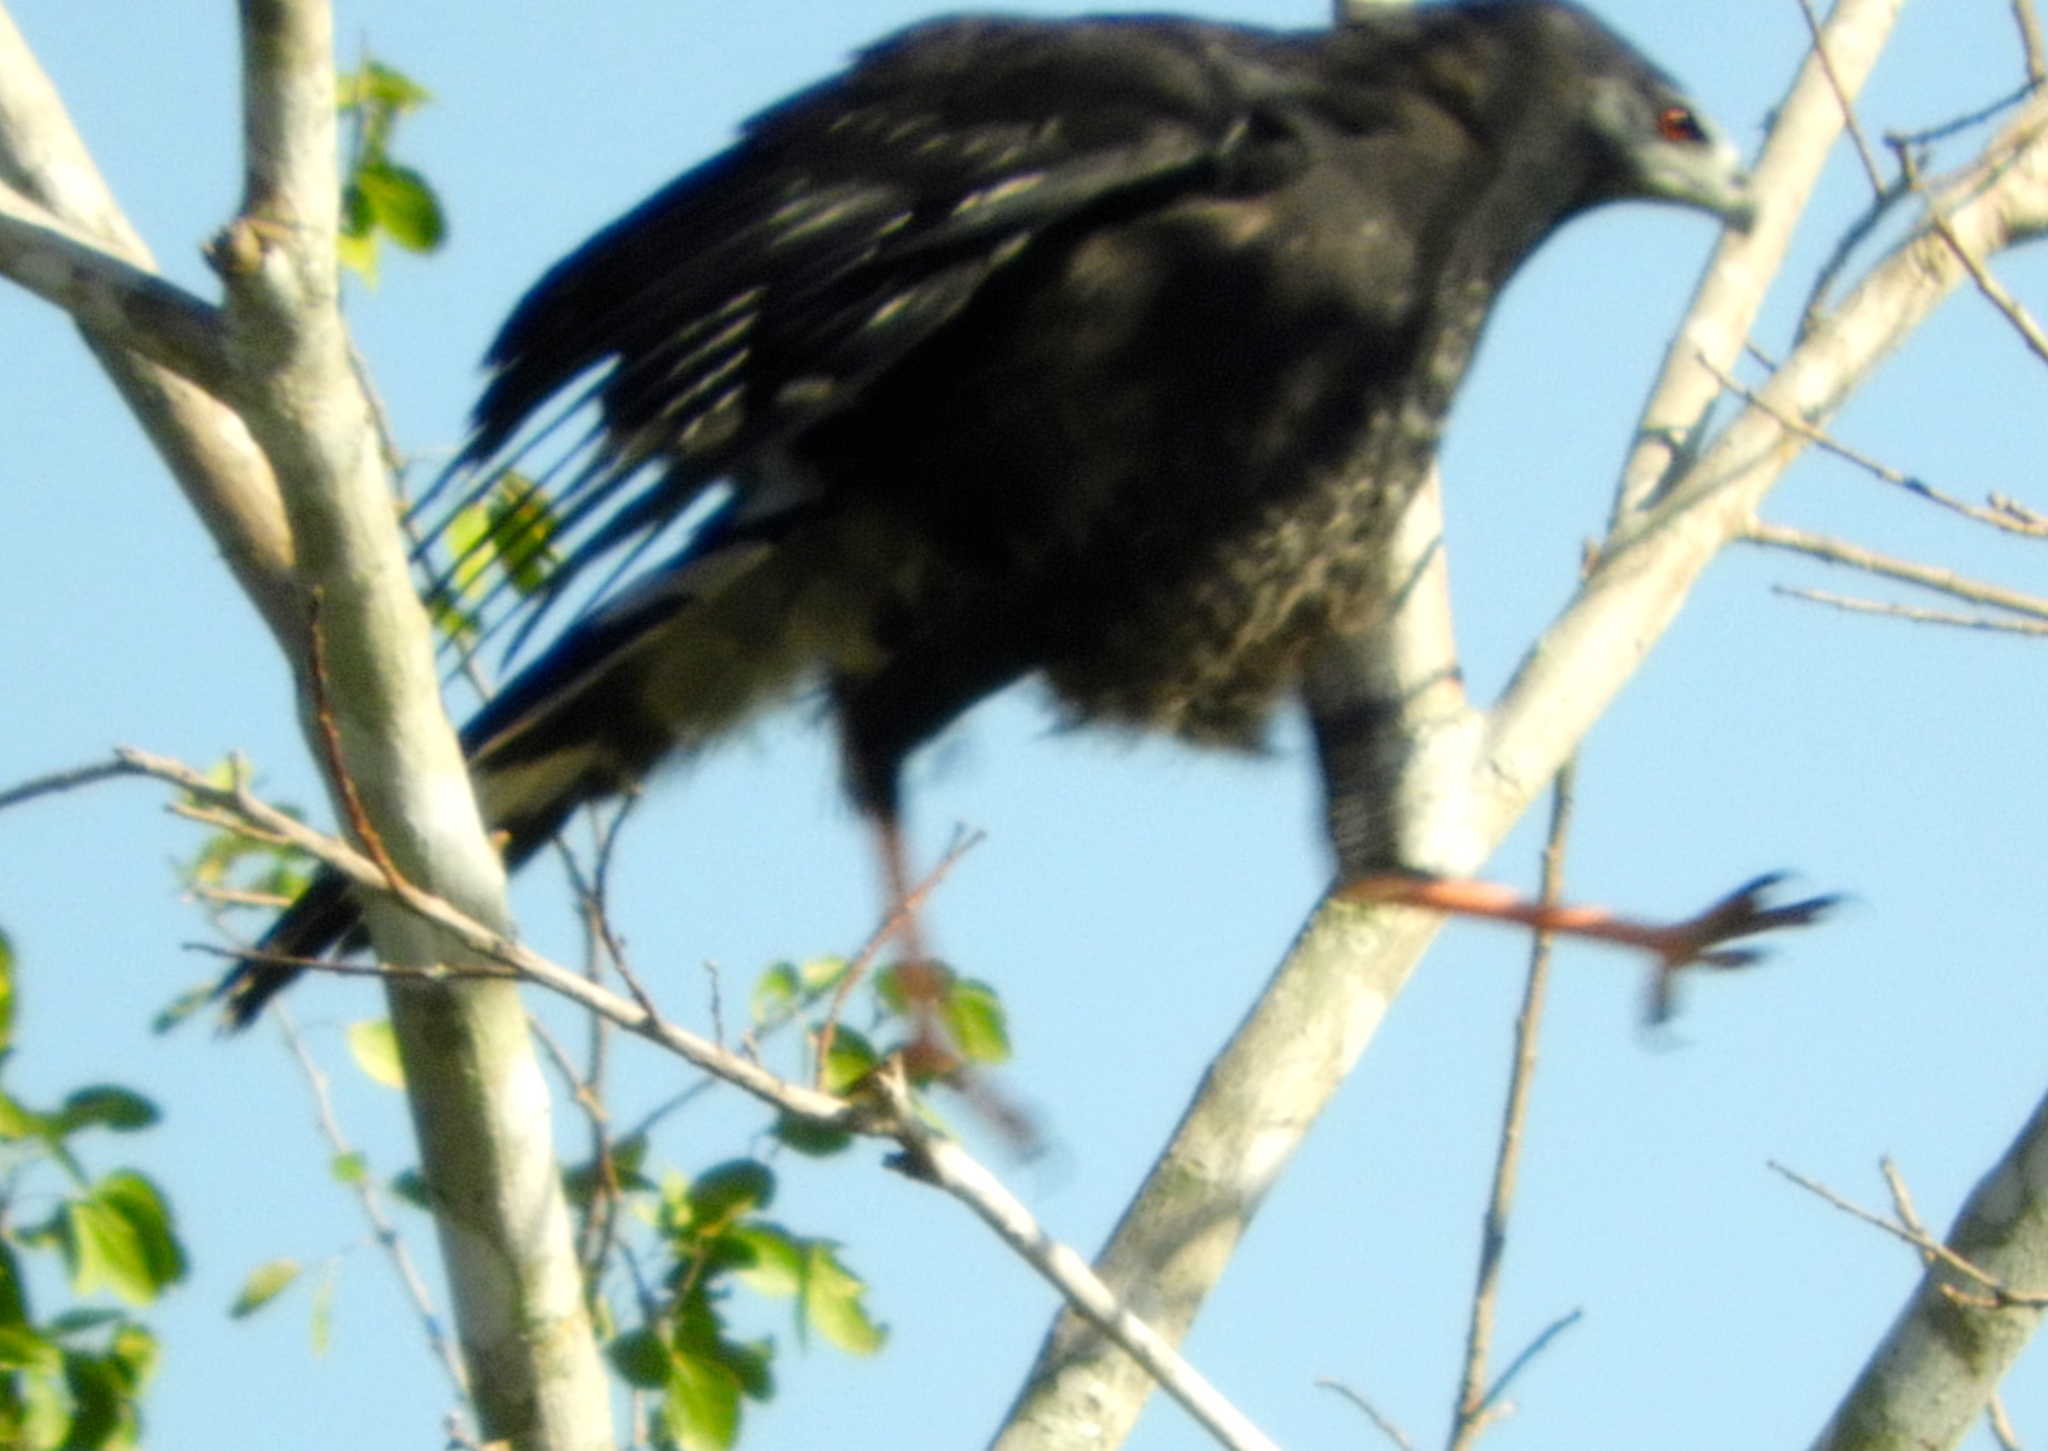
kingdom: Animalia
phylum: Chordata
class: Aves
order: Accipitriformes
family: Accipitridae
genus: Geranospiza
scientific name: Geranospiza caerulescens
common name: Crane hawk
